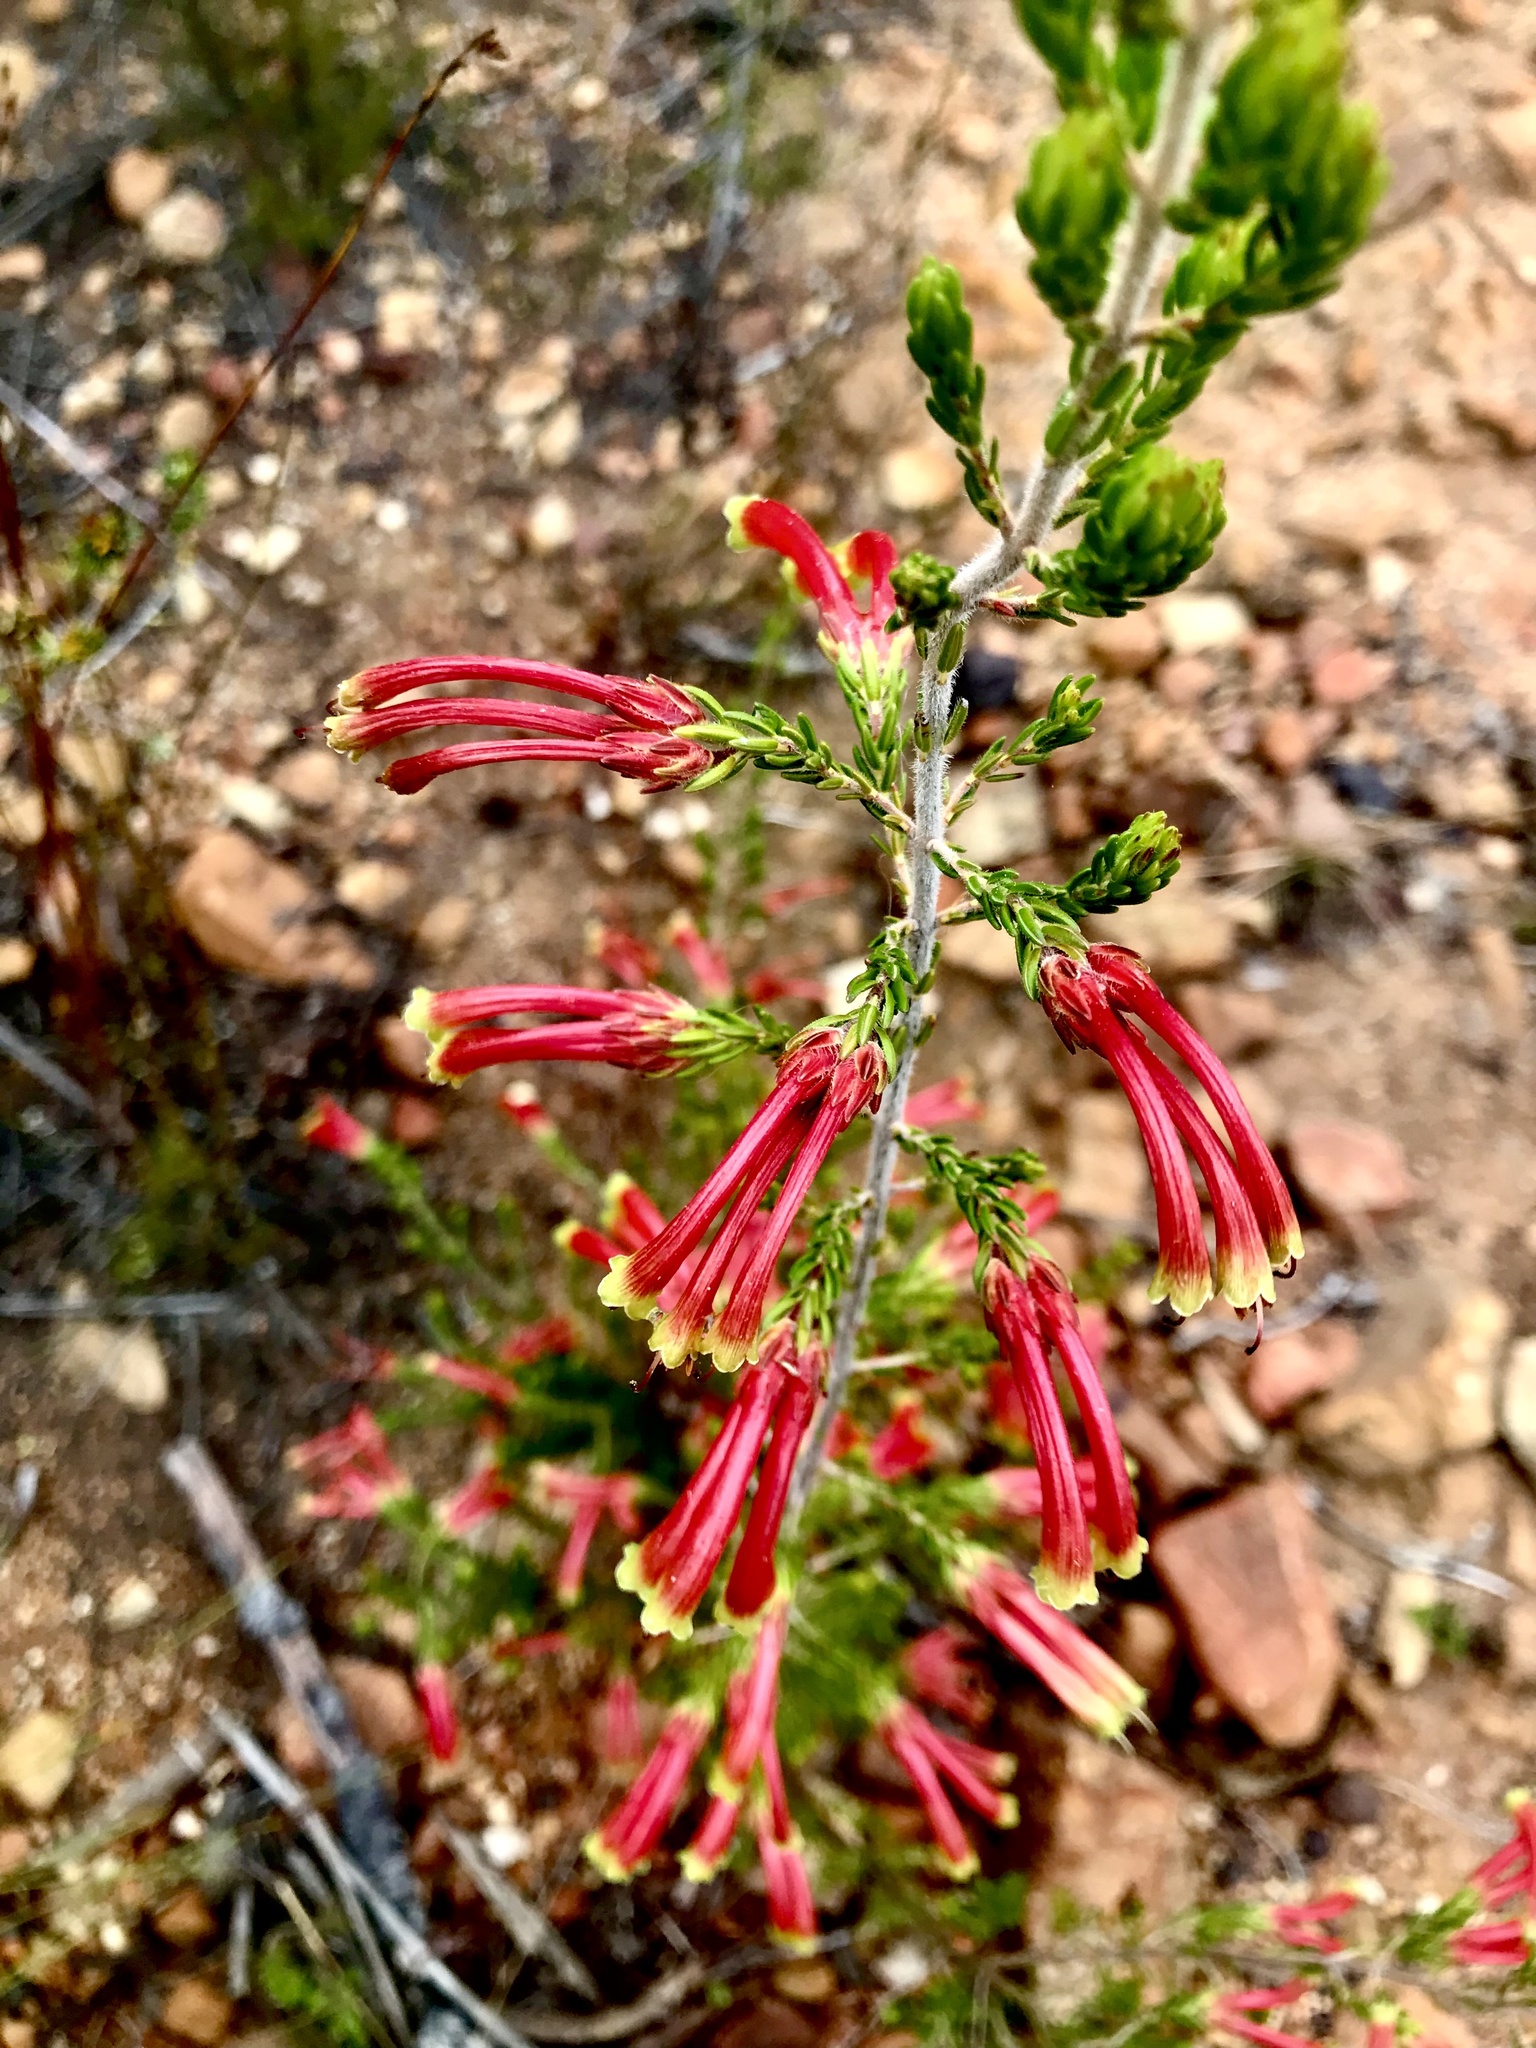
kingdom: Plantae
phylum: Tracheophyta
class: Magnoliopsida
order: Ericales
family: Ericaceae
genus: Erica
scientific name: Erica discolor
